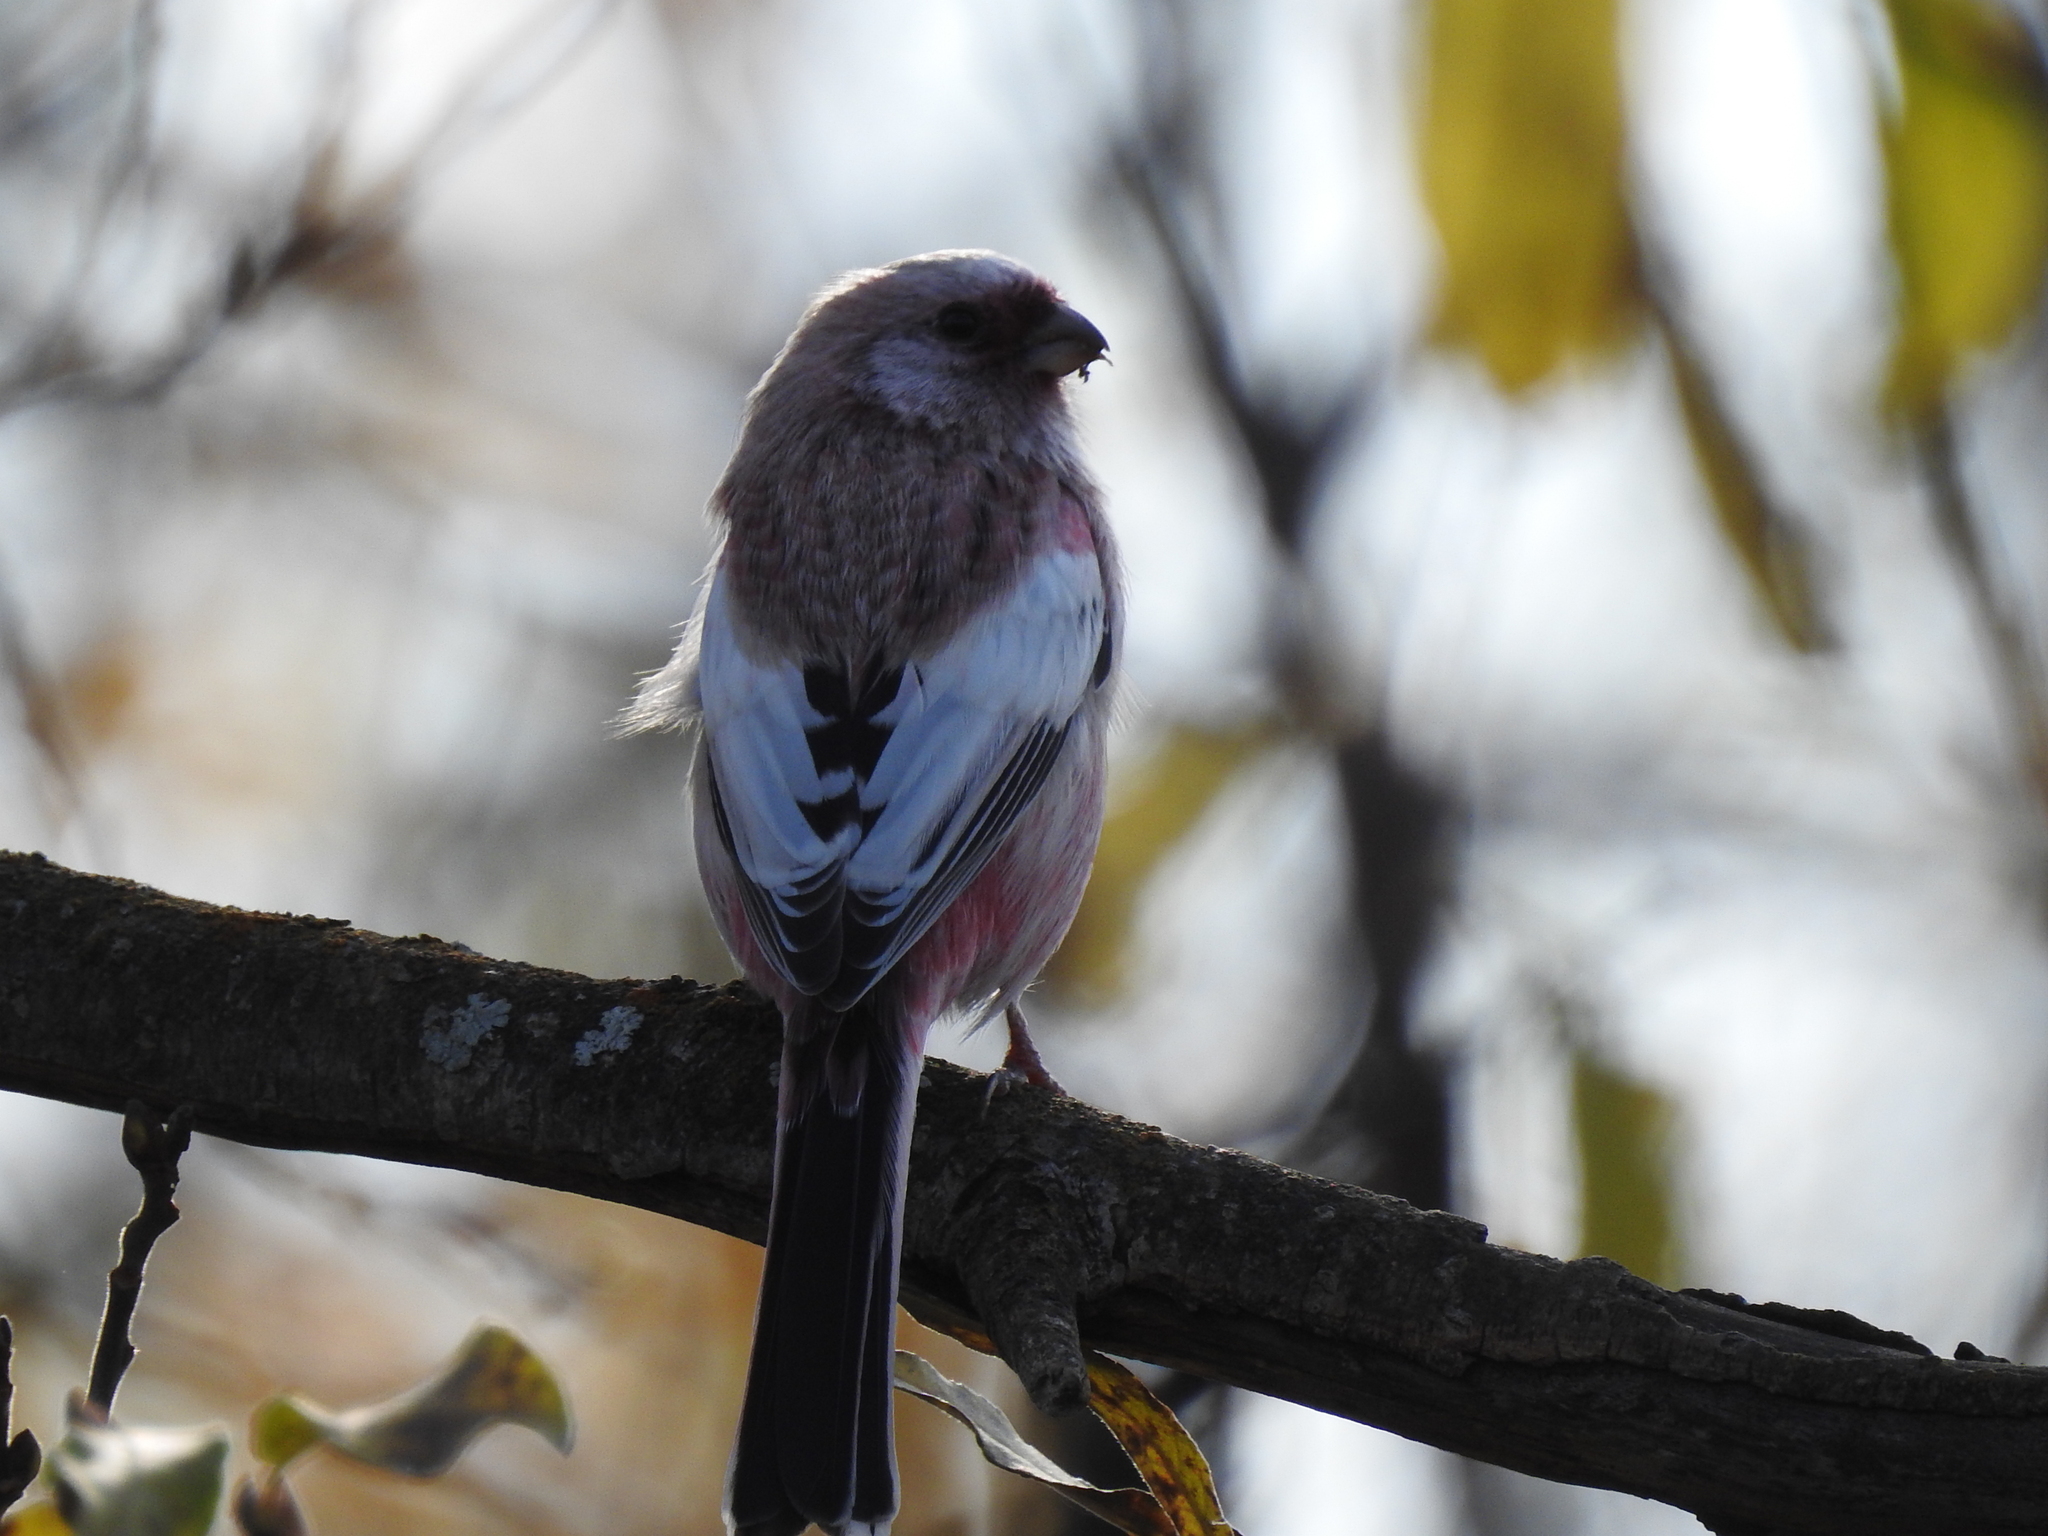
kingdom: Animalia
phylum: Chordata
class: Aves
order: Passeriformes
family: Fringillidae
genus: Carpodacus
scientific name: Carpodacus sibiricus
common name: Long-tailed rosefinch
